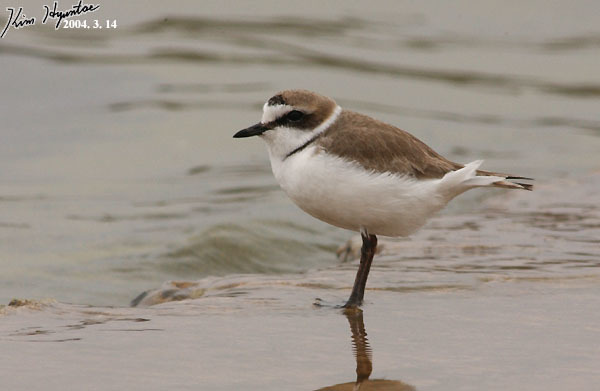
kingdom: Animalia
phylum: Chordata
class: Aves
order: Charadriiformes
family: Charadriidae
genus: Charadrius
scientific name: Charadrius alexandrinus
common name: Kentish plover
